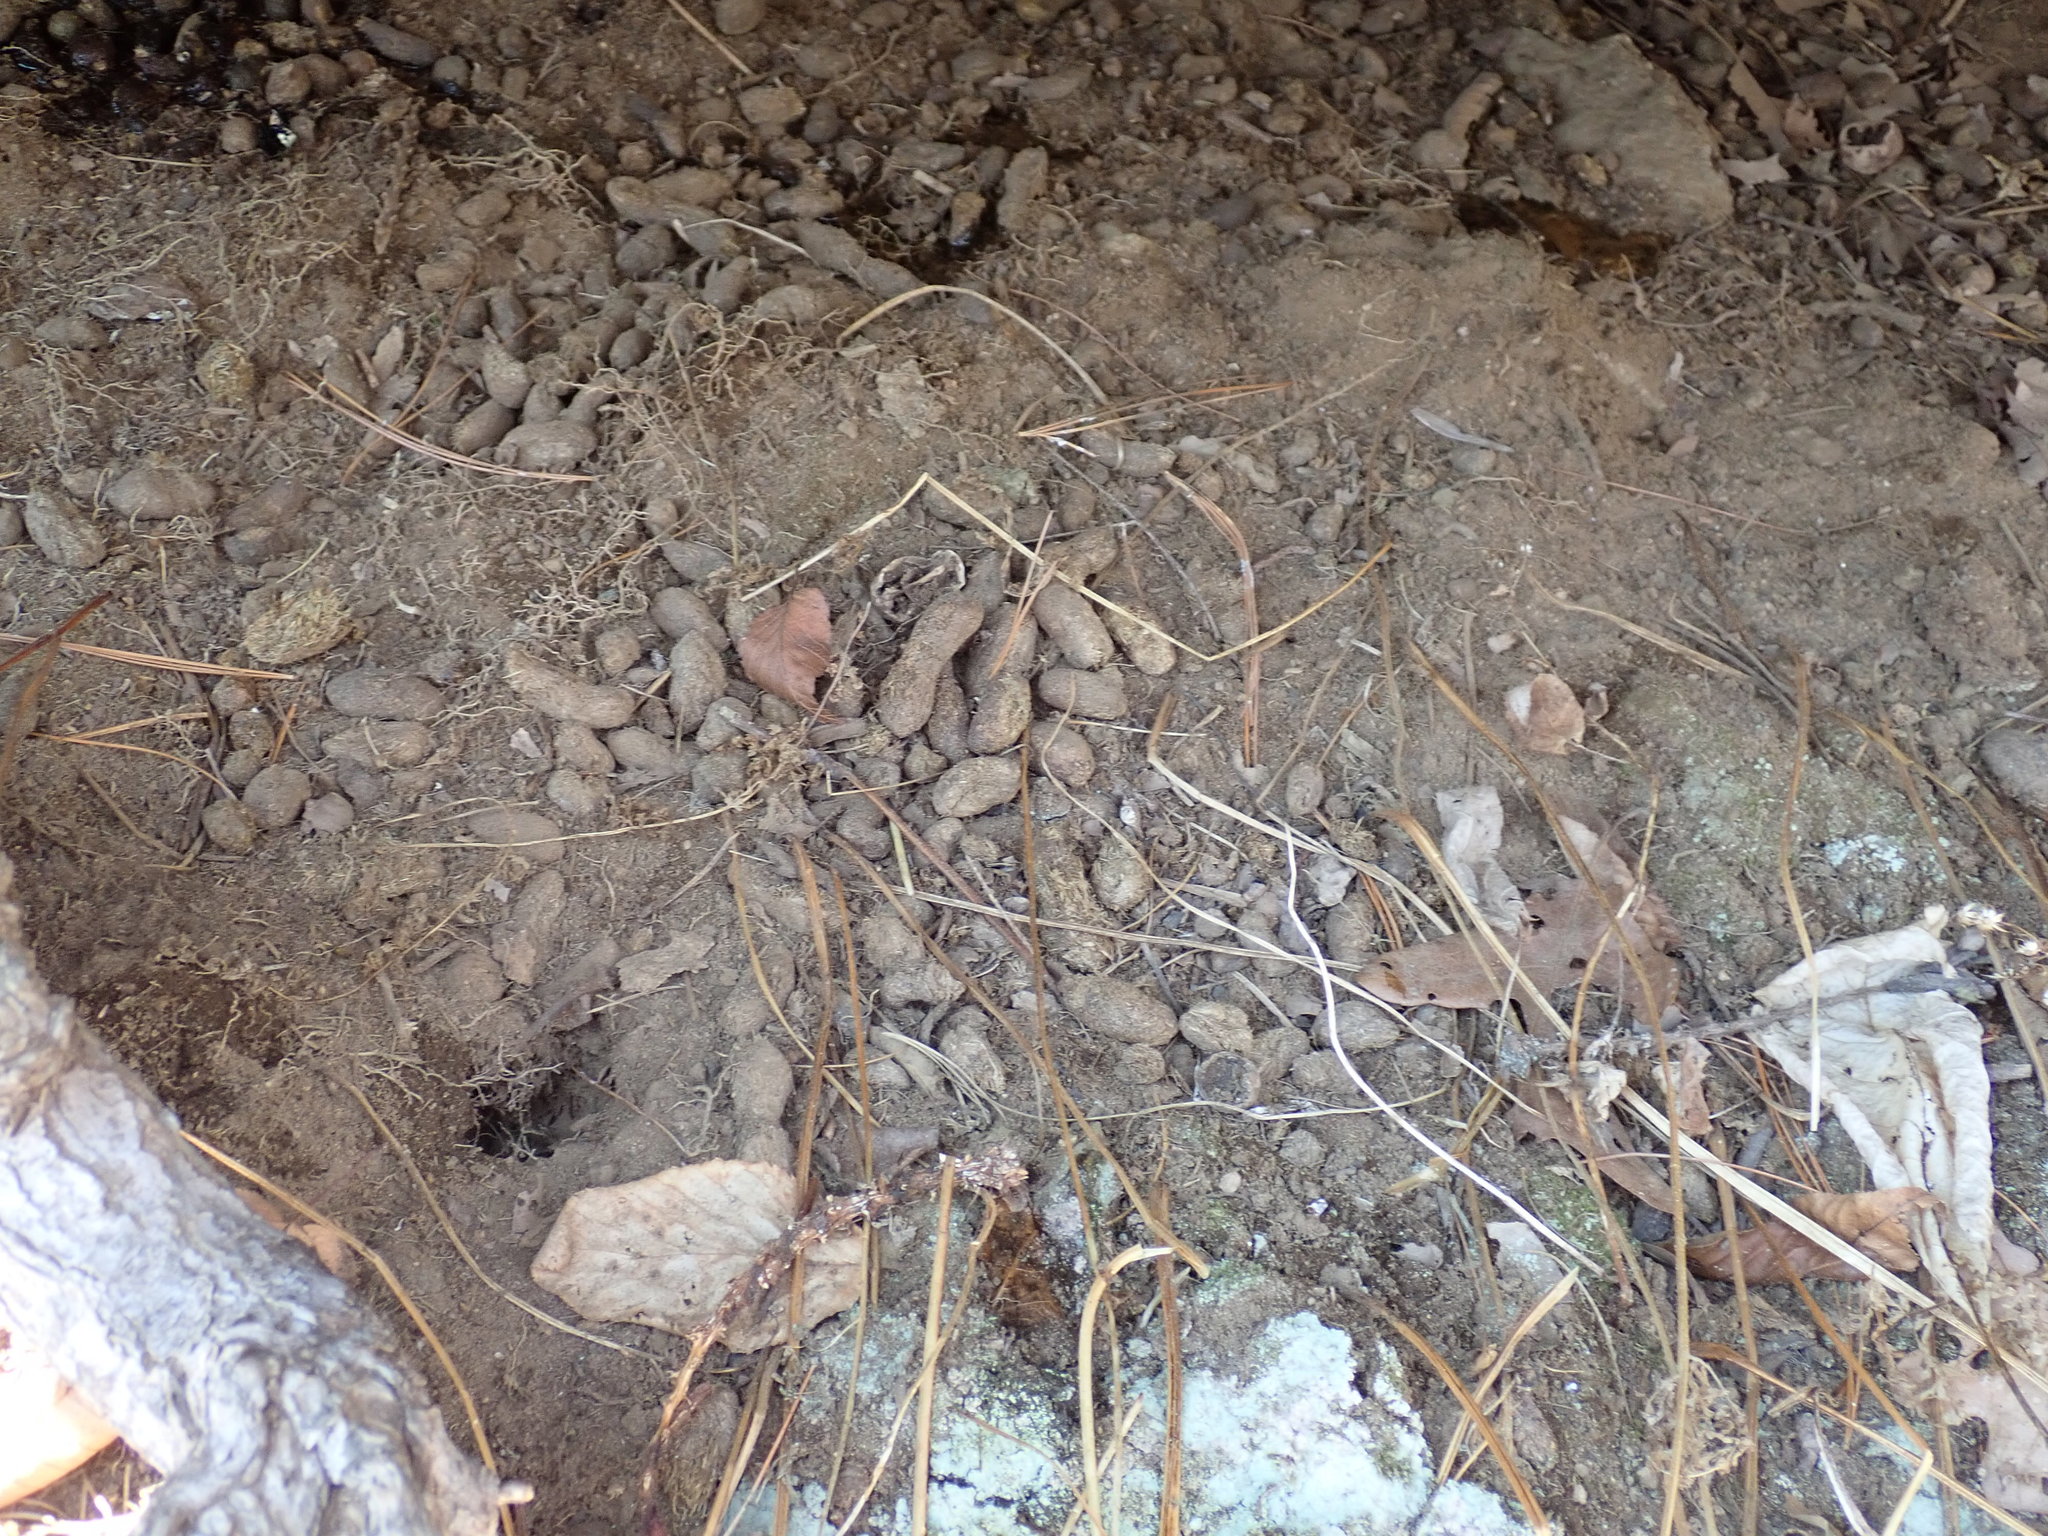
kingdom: Animalia
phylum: Chordata
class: Mammalia
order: Rodentia
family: Erethizontidae
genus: Erethizon
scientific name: Erethizon dorsatus
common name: North american porcupine
